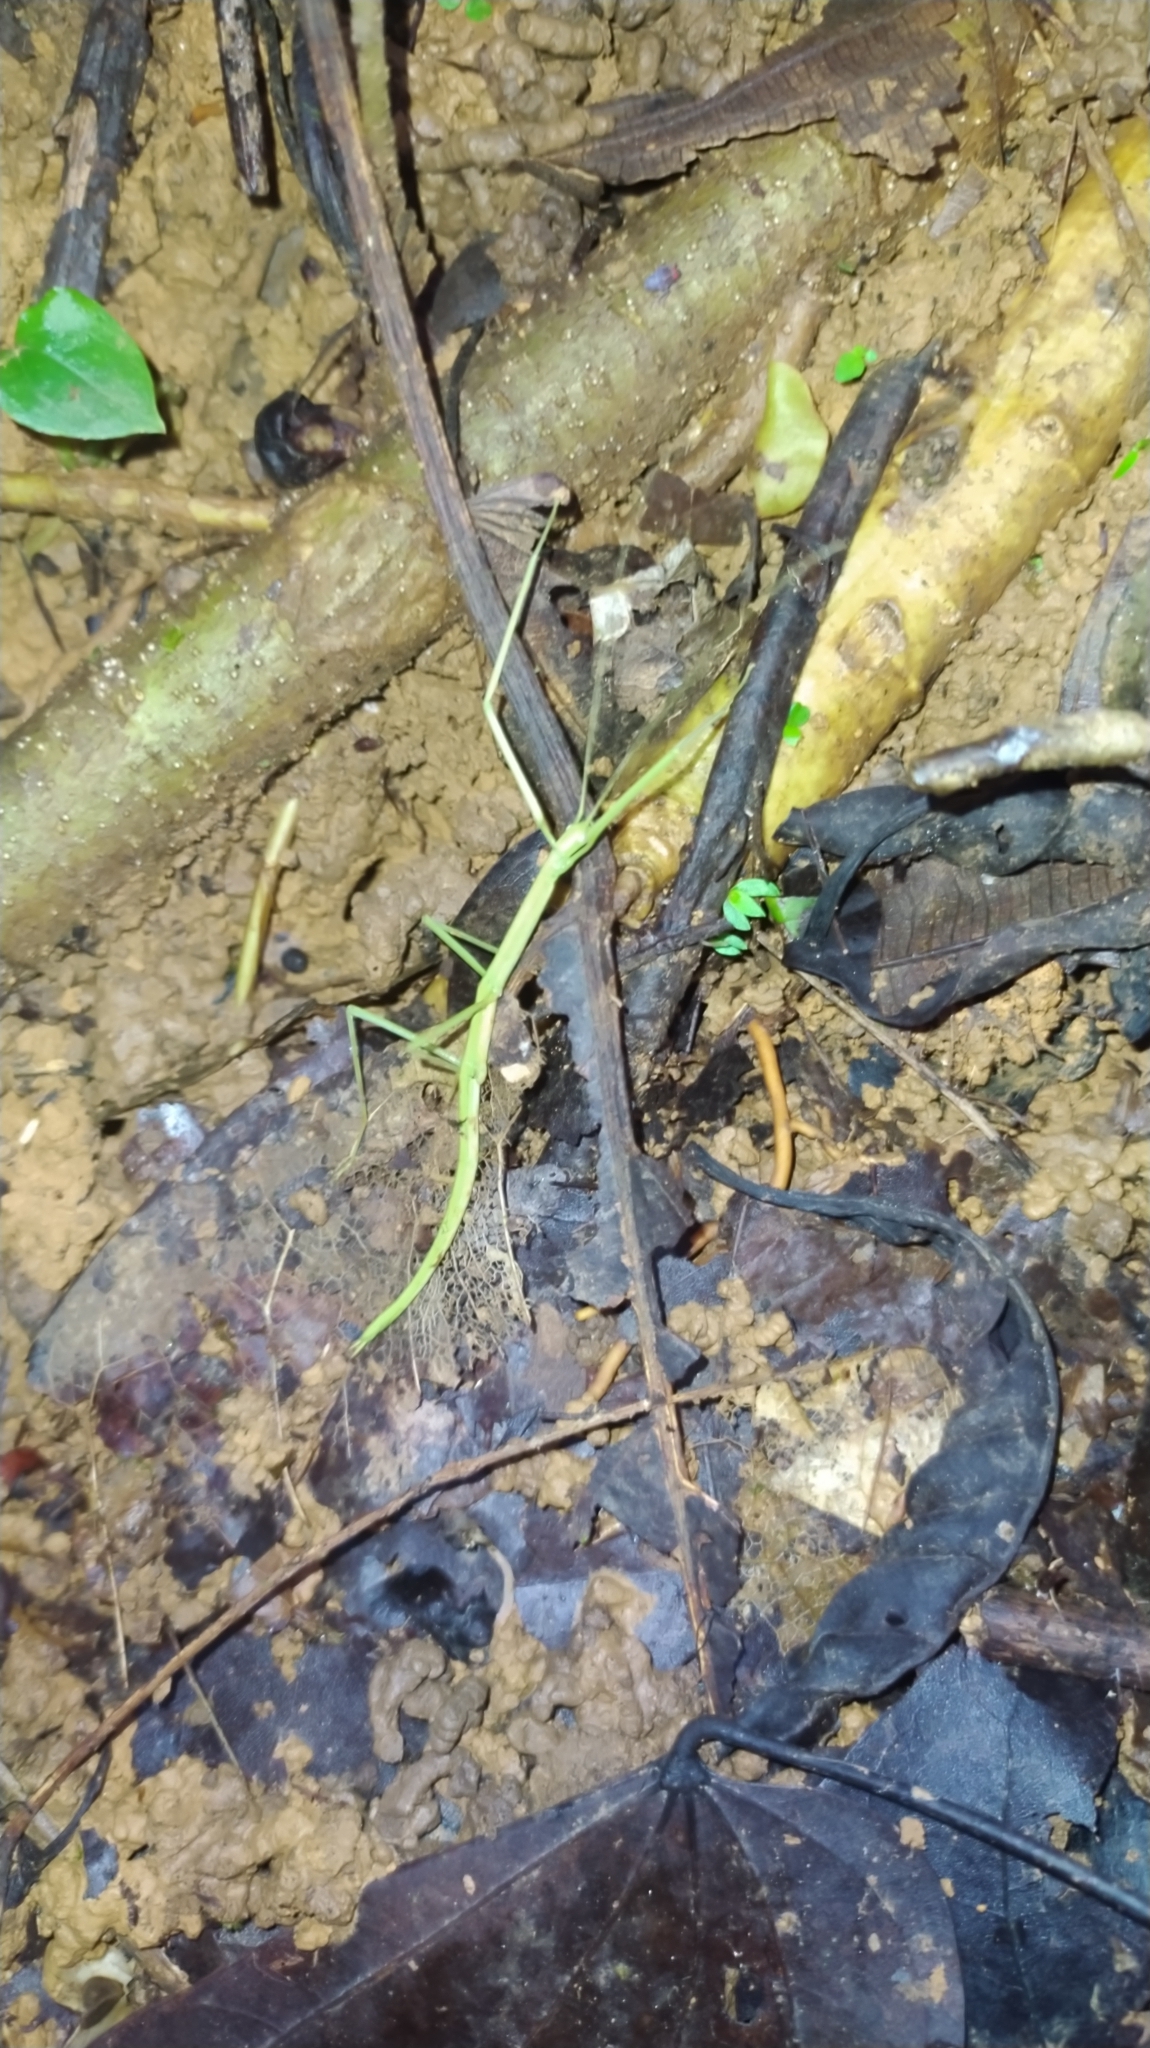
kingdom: Animalia
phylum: Arthropoda
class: Insecta
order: Phasmida
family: Diapheromeridae
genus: Phantasca
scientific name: Phantasca
